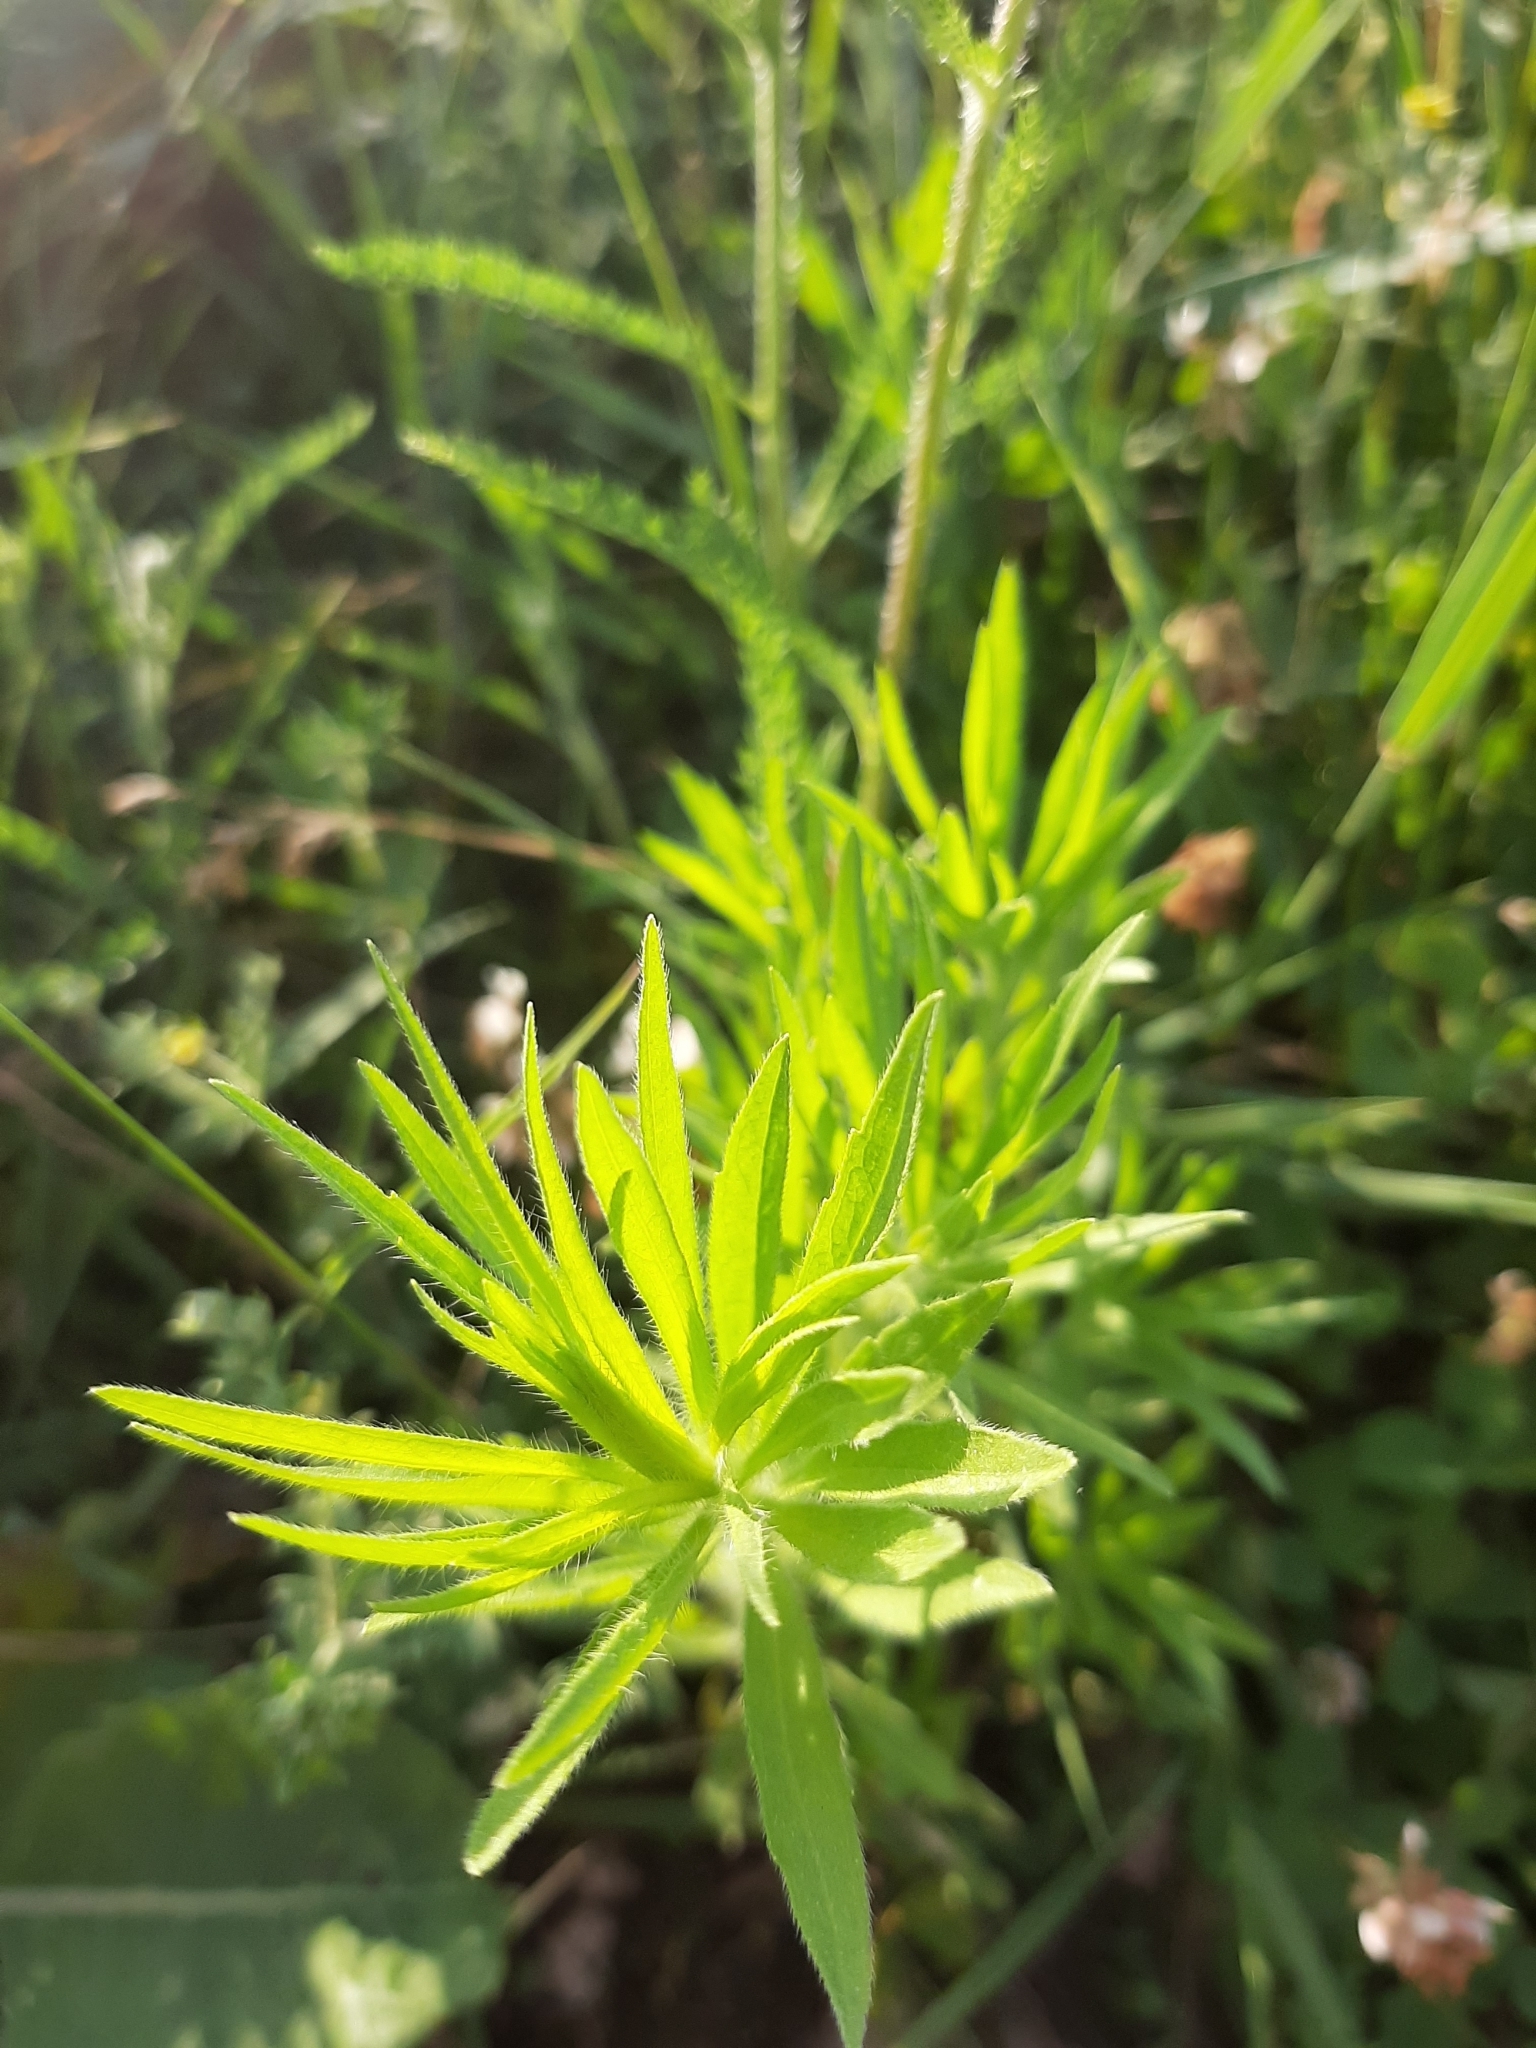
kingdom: Plantae
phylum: Tracheophyta
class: Magnoliopsida
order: Asterales
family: Asteraceae
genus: Erigeron
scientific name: Erigeron canadensis
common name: Canadian fleabane
